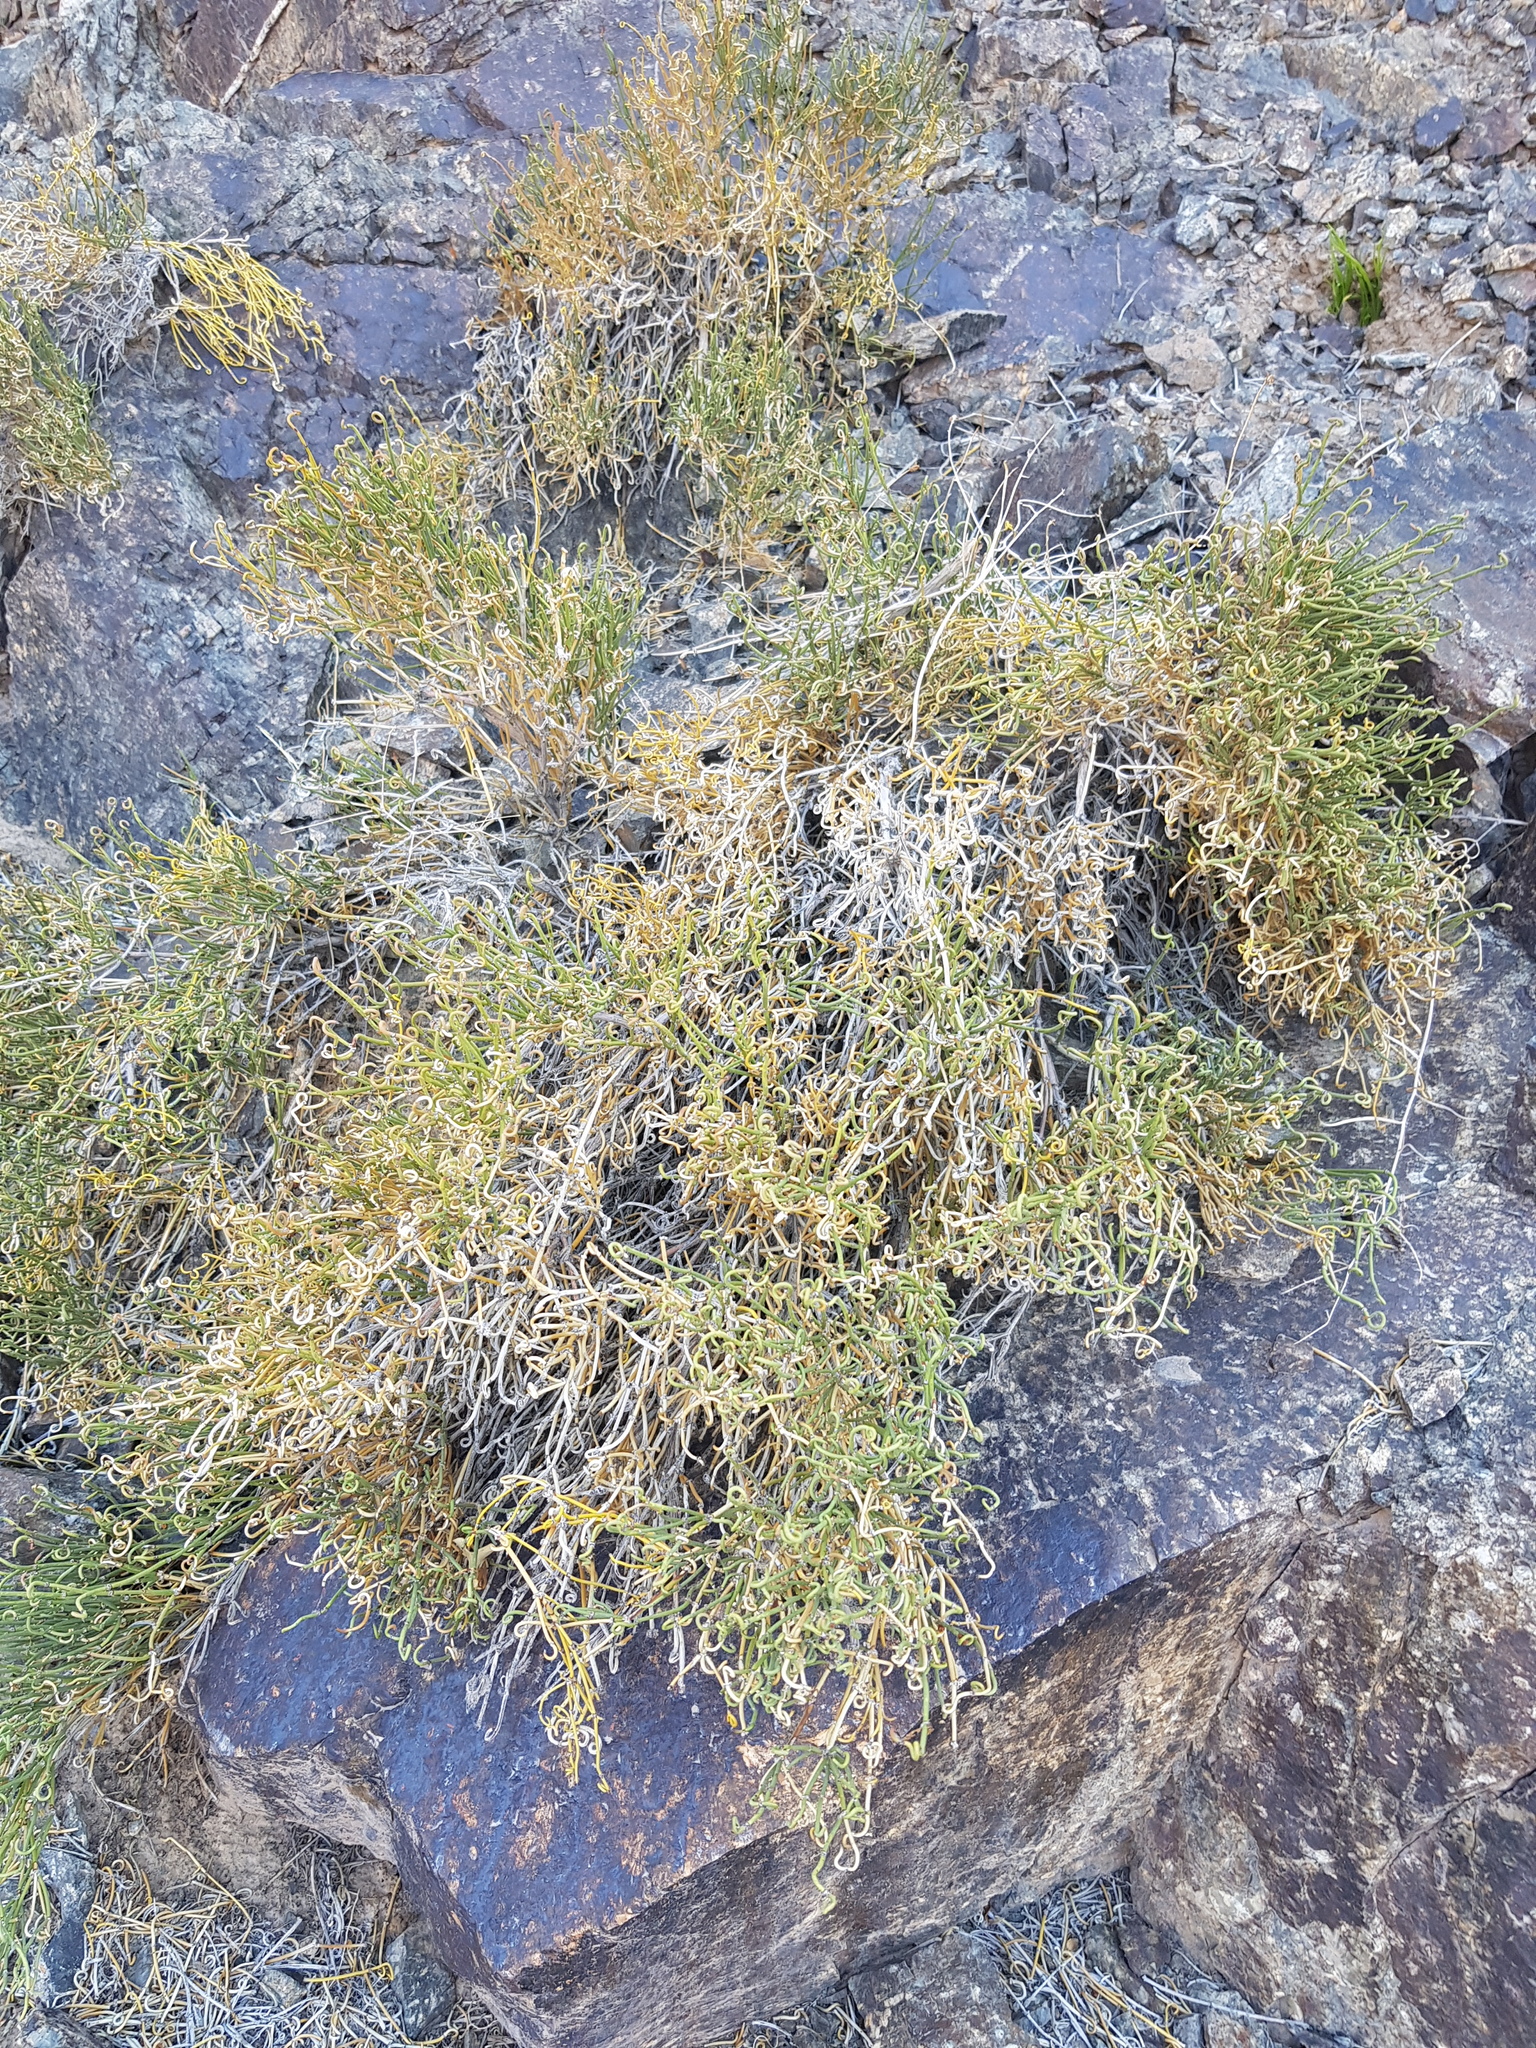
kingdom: Plantae
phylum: Tracheophyta
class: Gnetopsida
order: Ephedrales
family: Ephedraceae
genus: Ephedra
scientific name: Ephedra przewalskii
